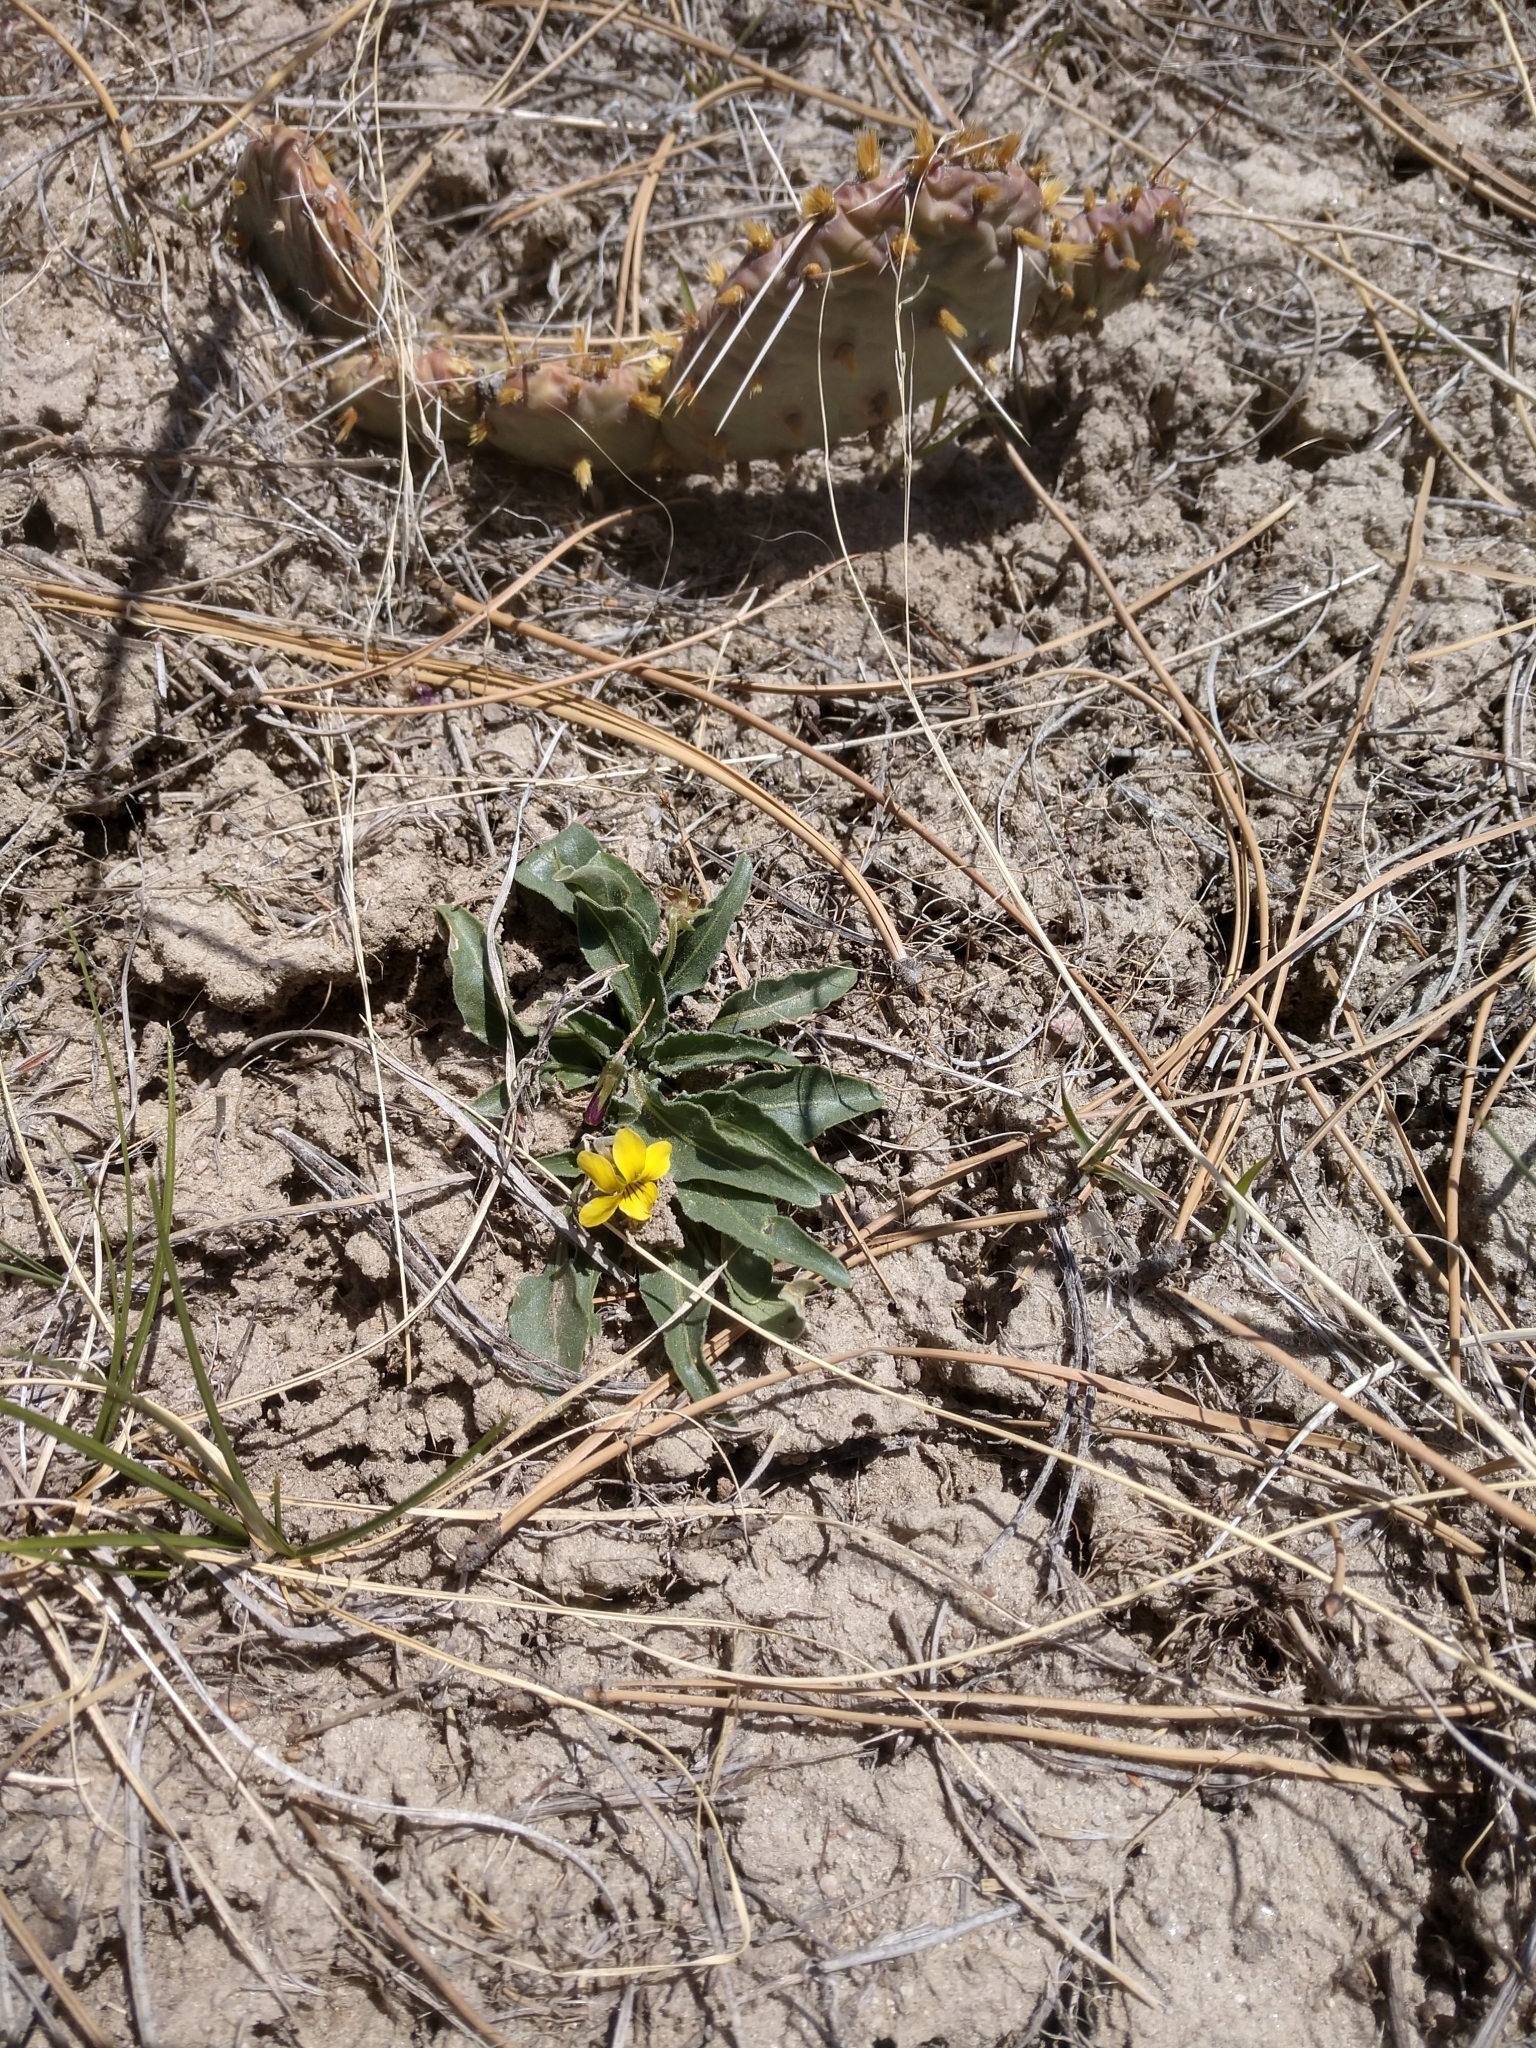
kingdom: Plantae
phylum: Tracheophyta
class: Magnoliopsida
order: Malpighiales
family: Violaceae
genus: Viola
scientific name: Viola nuttallii
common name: Yellow prairie violet
